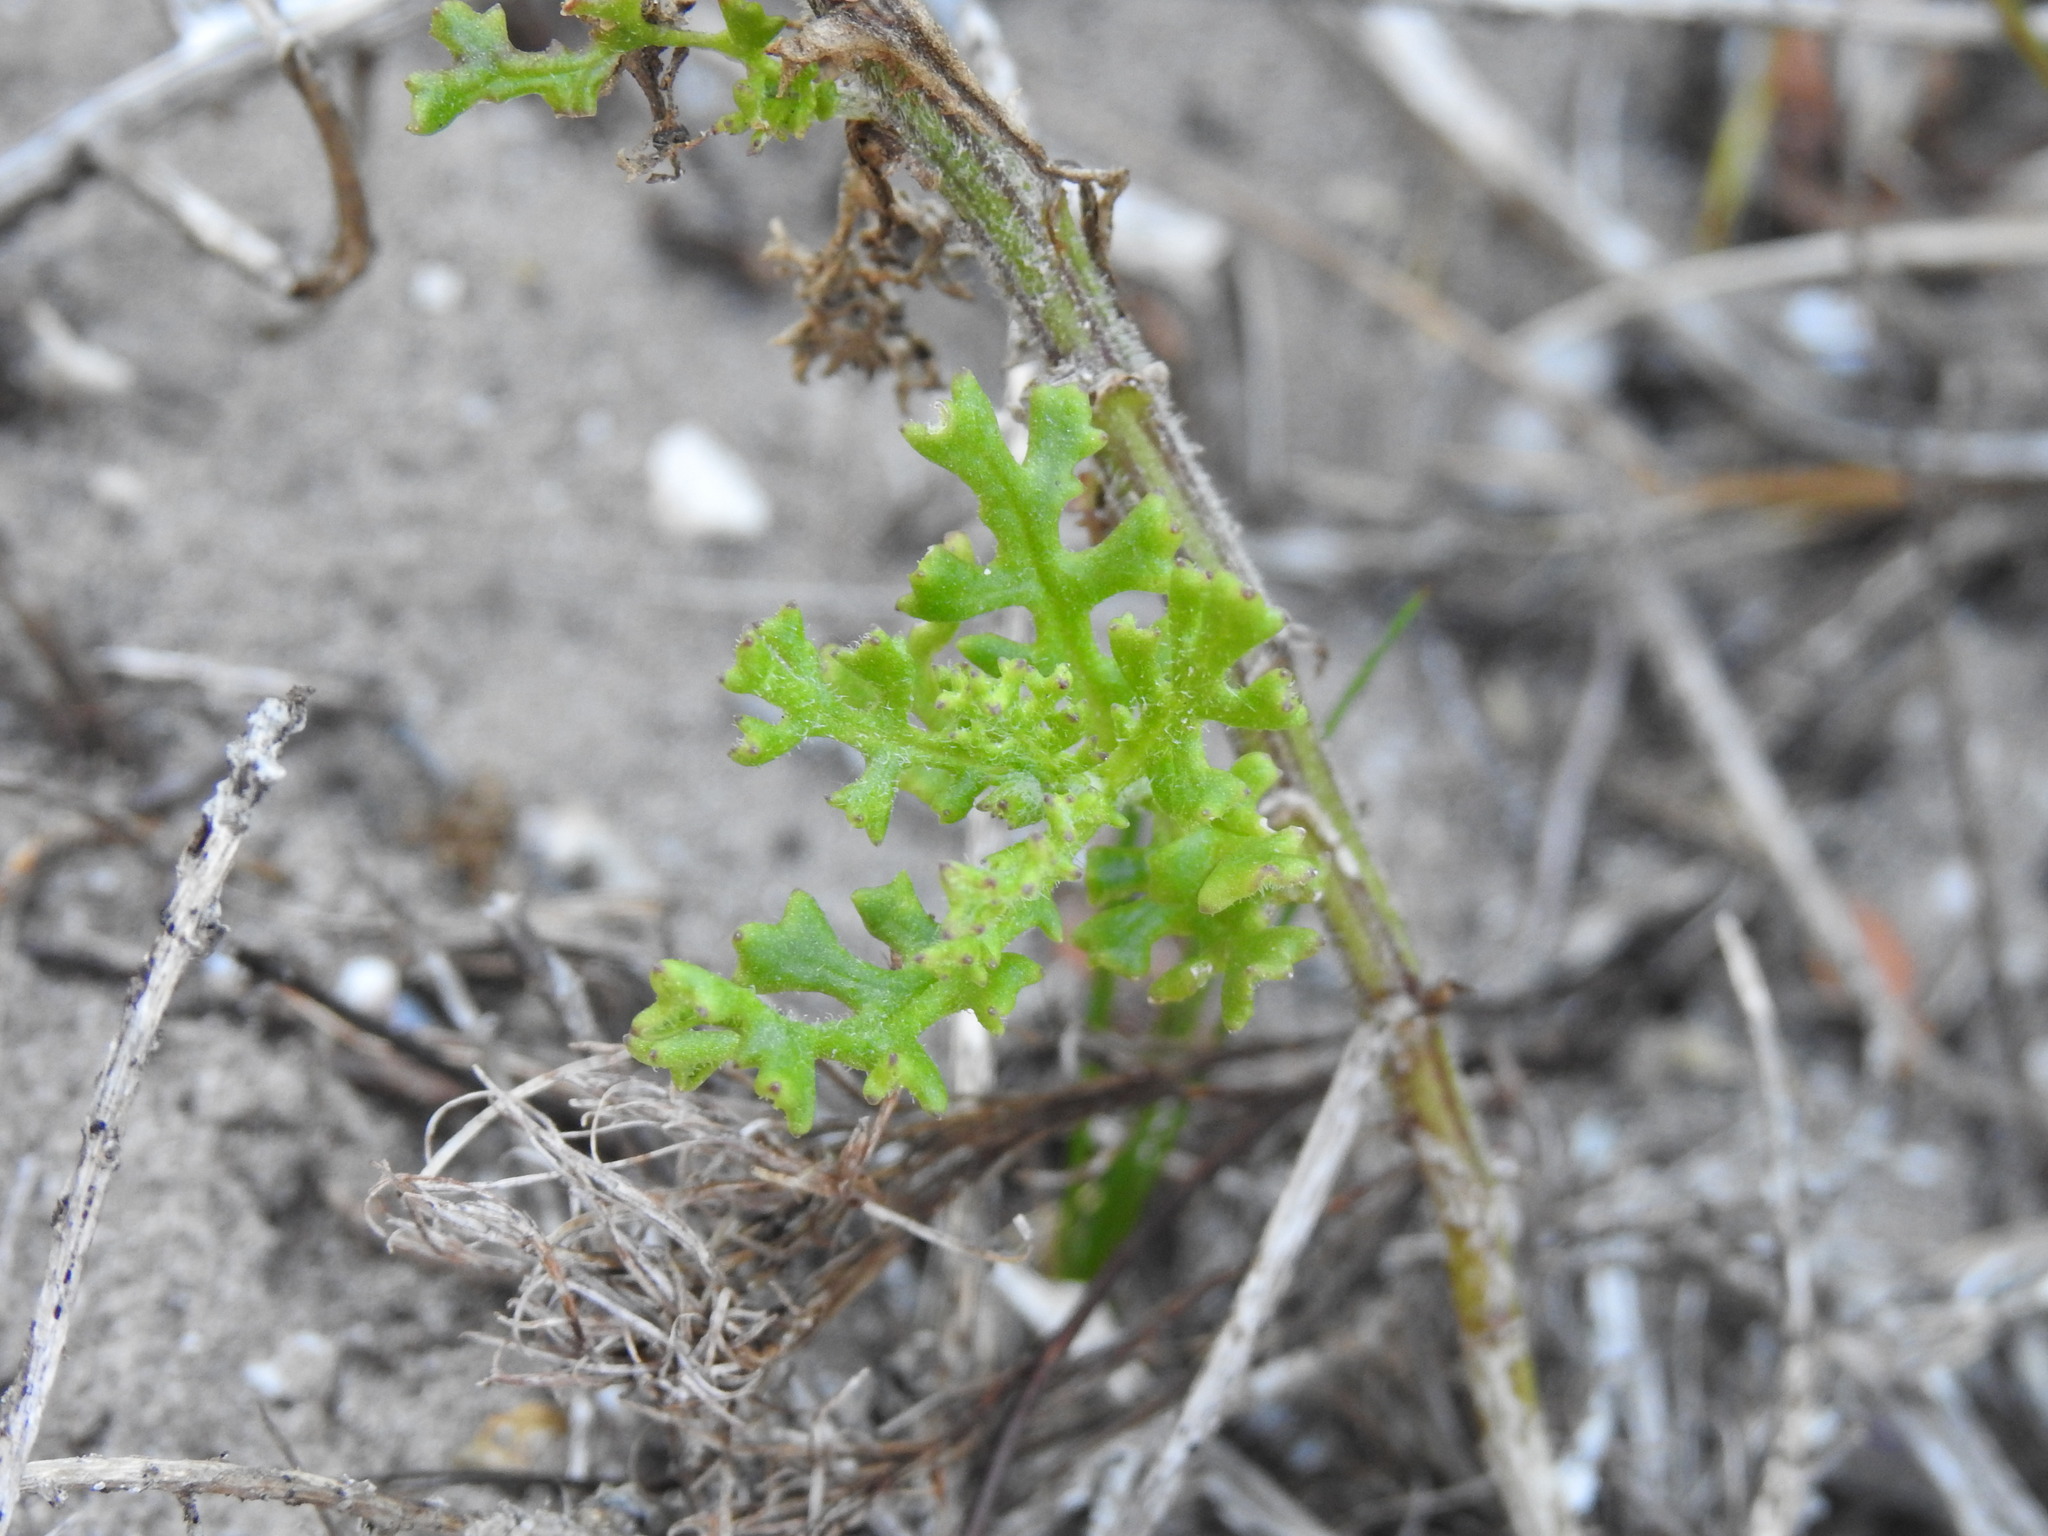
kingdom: Plantae
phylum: Tracheophyta
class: Magnoliopsida
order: Asterales
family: Asteraceae
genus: Senecio
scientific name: Senecio elegans
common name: Purple groundsel
